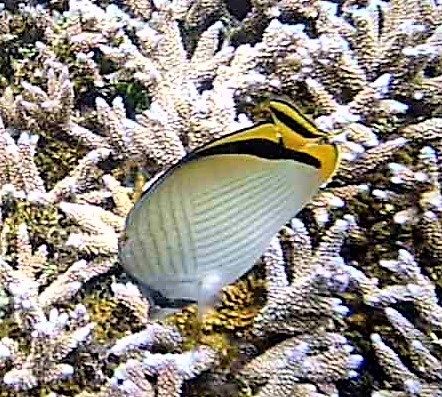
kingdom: Animalia
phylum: Chordata
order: Perciformes
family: Chaetodontidae
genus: Chaetodon
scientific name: Chaetodon vagabundus
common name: Vagabond butterflyfish
